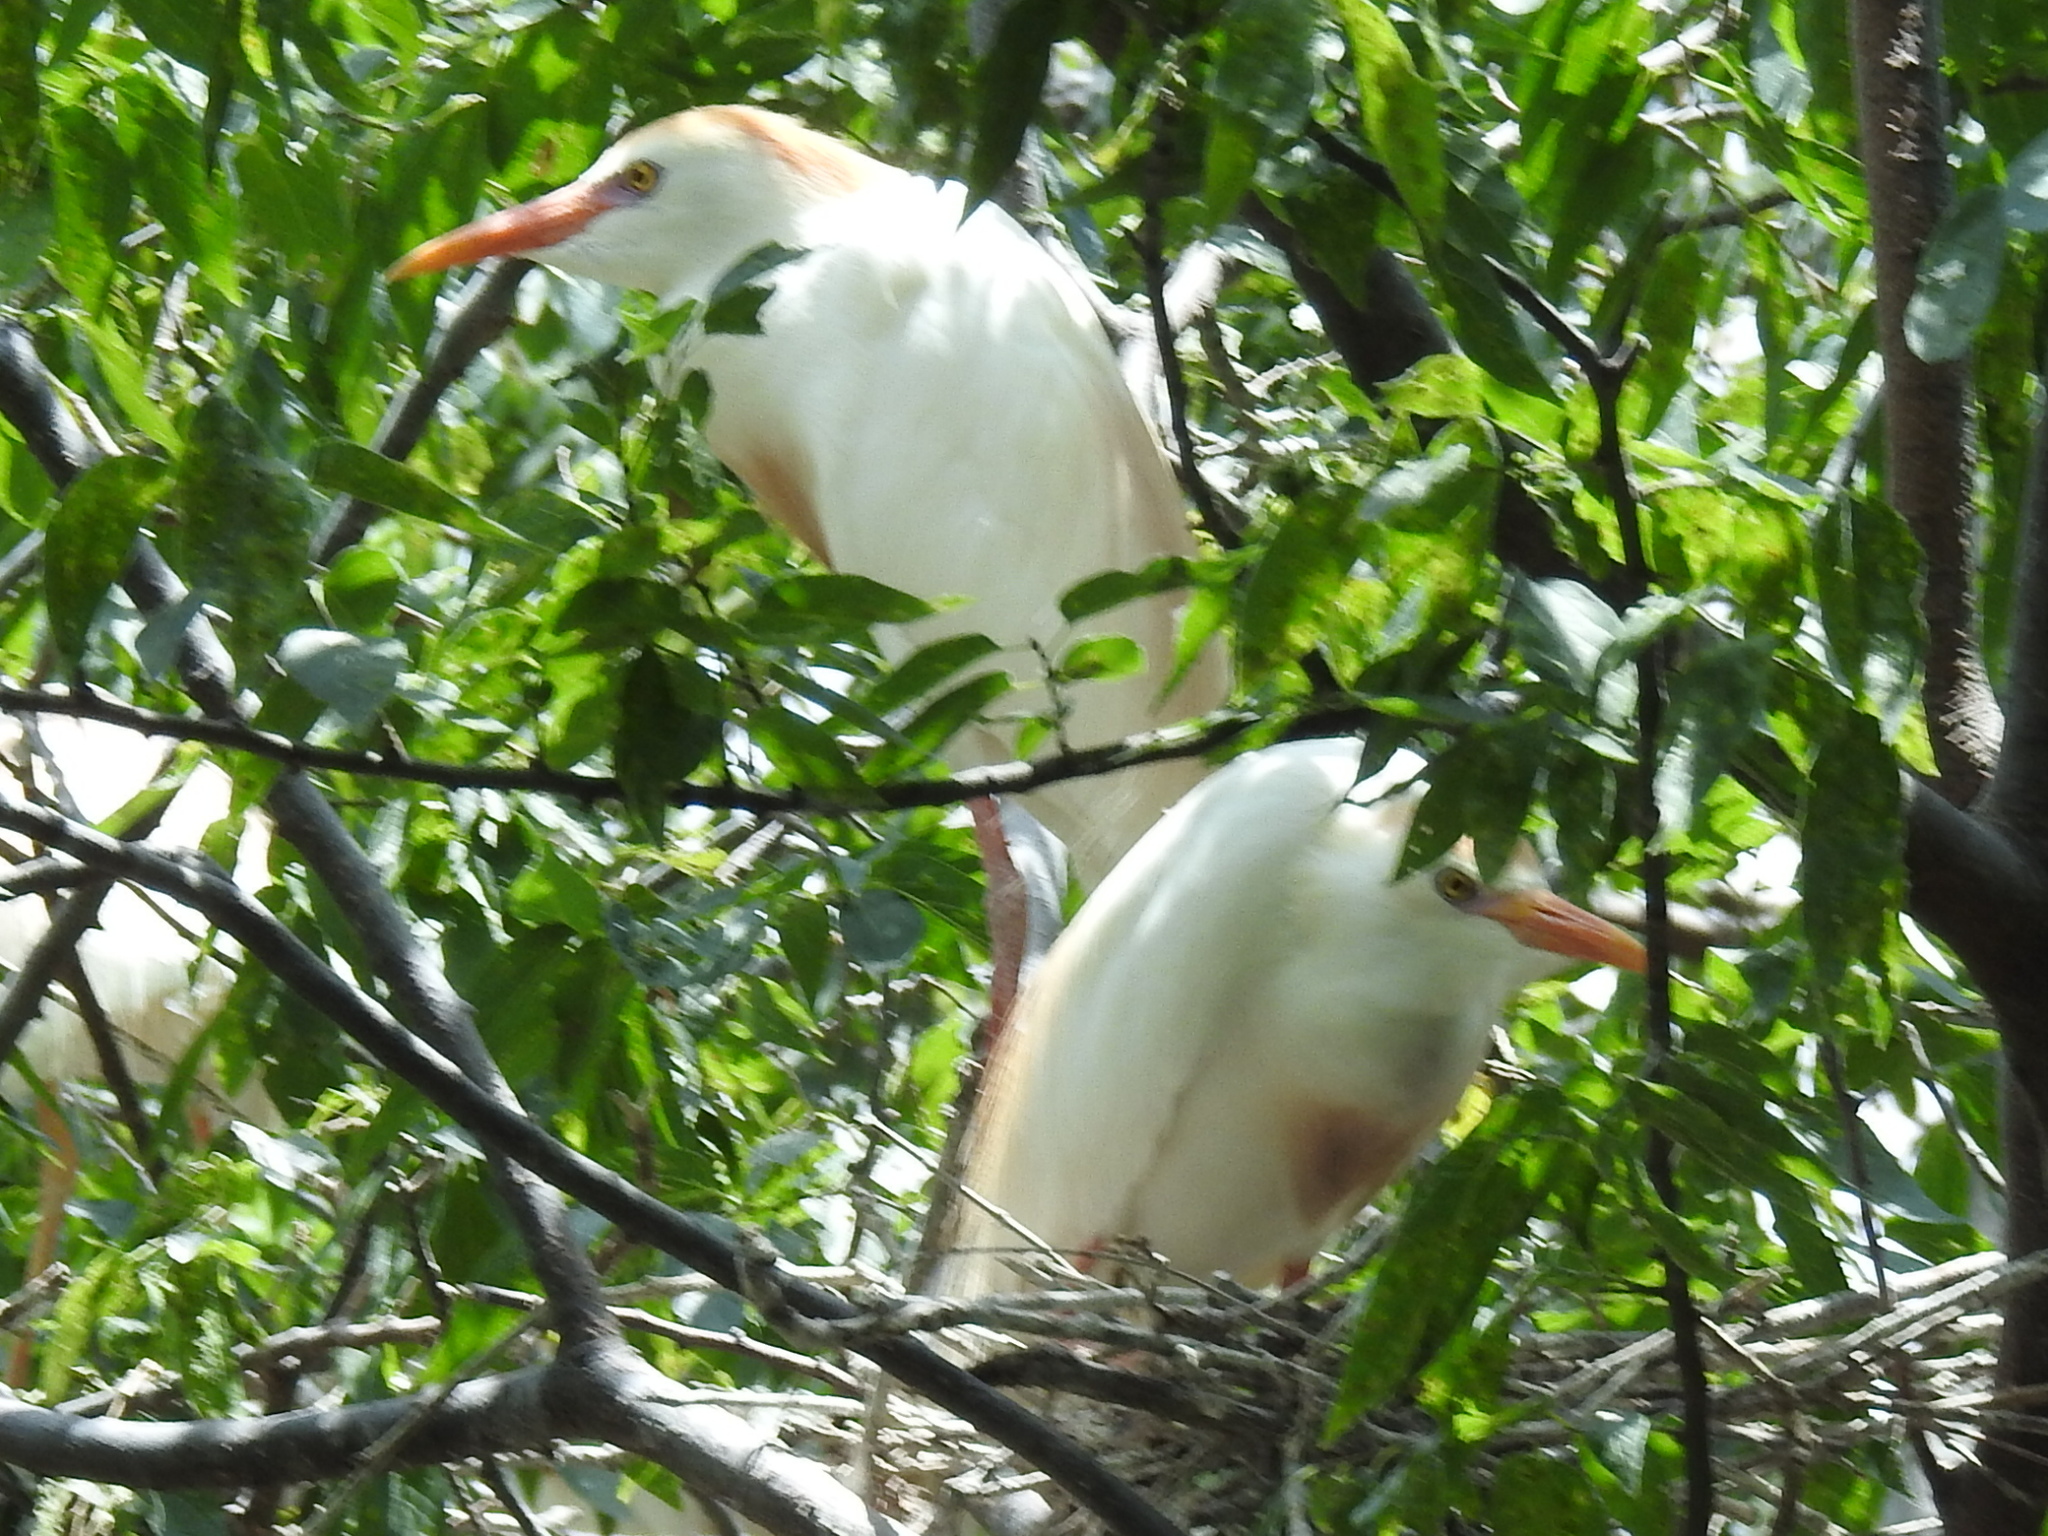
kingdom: Animalia
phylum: Chordata
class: Aves
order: Pelecaniformes
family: Ardeidae
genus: Bubulcus
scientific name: Bubulcus ibis
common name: Cattle egret
